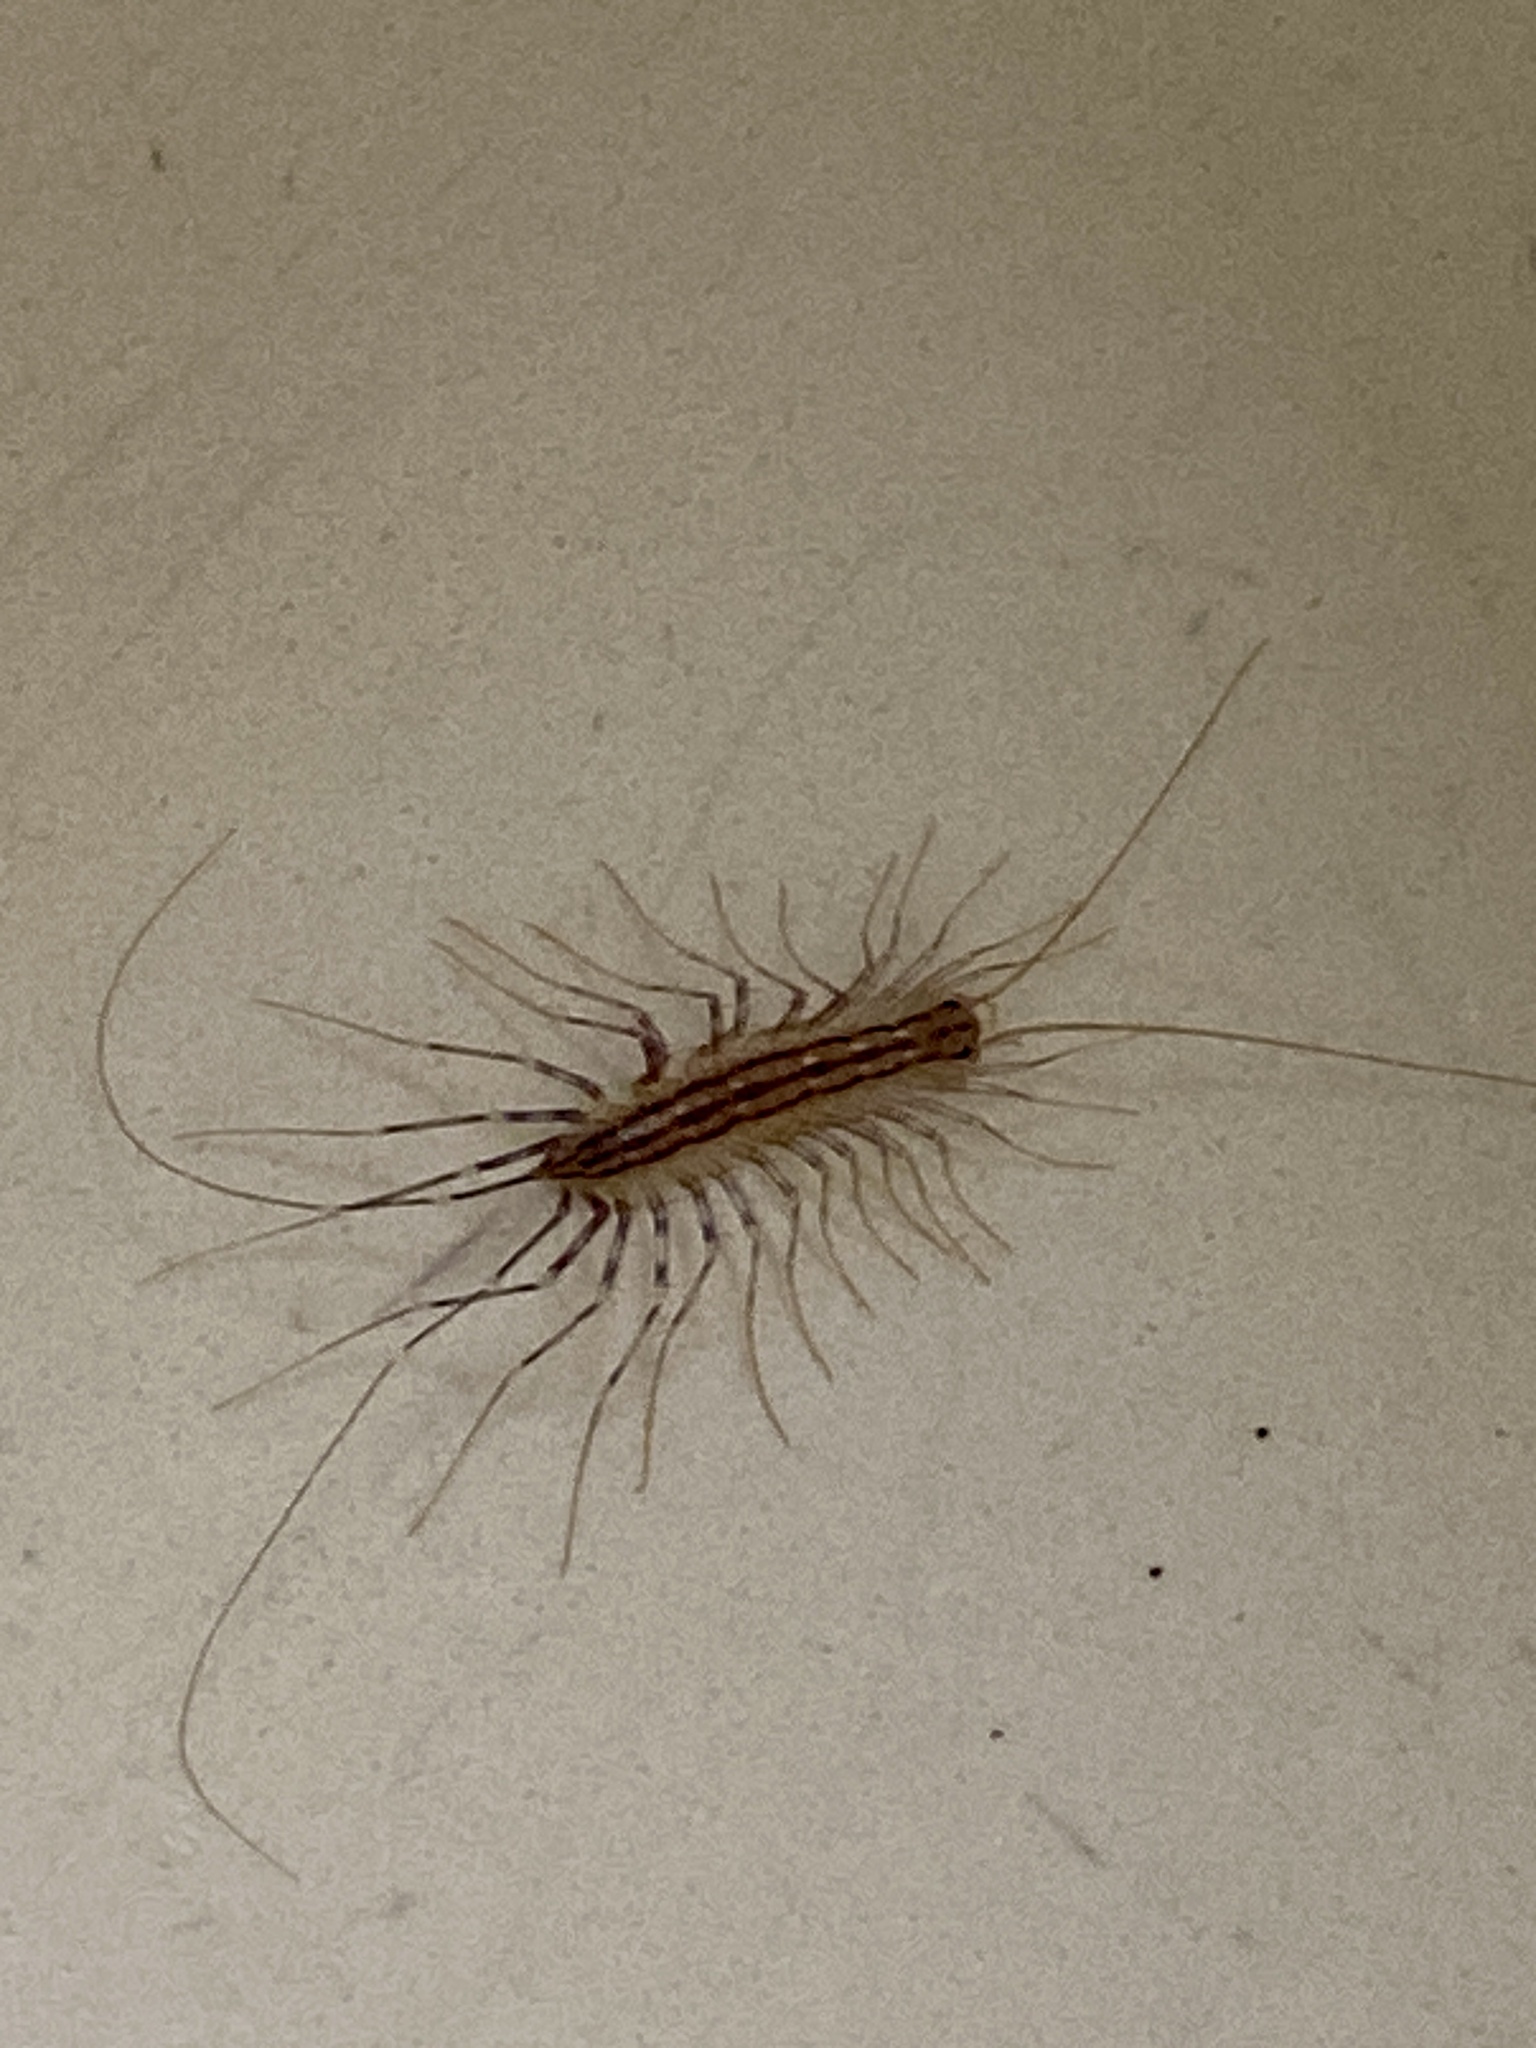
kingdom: Animalia
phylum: Arthropoda
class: Chilopoda
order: Scutigeromorpha
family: Scutigeridae
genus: Scutigera
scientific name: Scutigera coleoptrata
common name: House centipede
